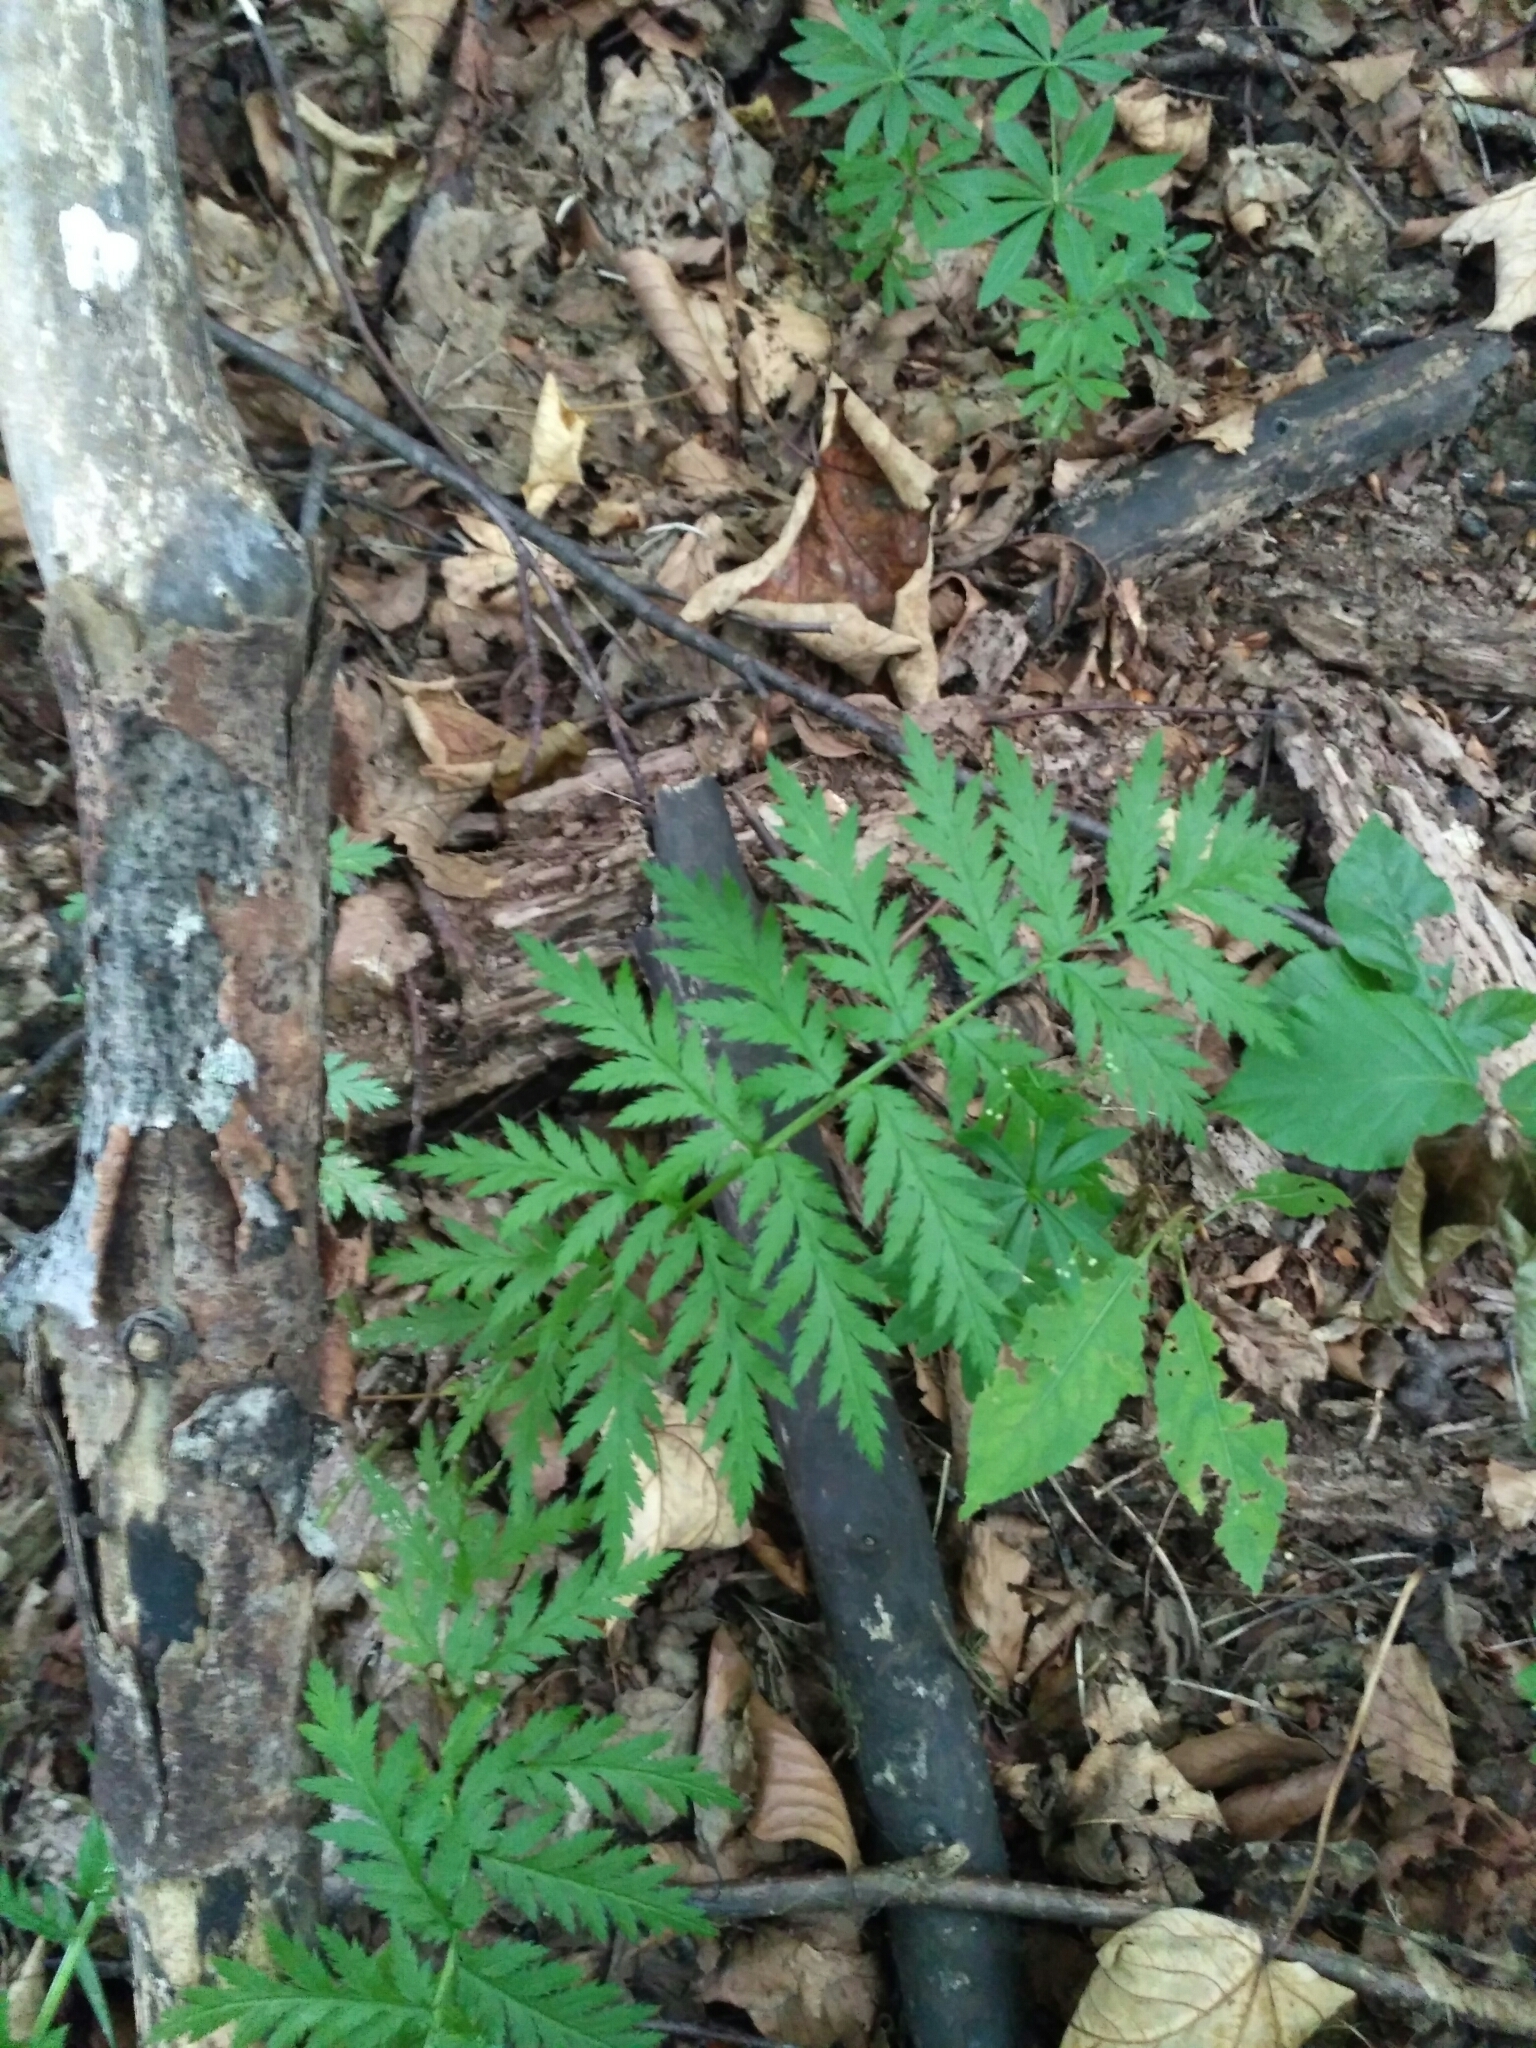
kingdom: Plantae
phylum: Tracheophyta
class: Magnoliopsida
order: Asterales
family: Asteraceae
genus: Tanacetum
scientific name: Tanacetum corymbosum
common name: Scentless feverfew
